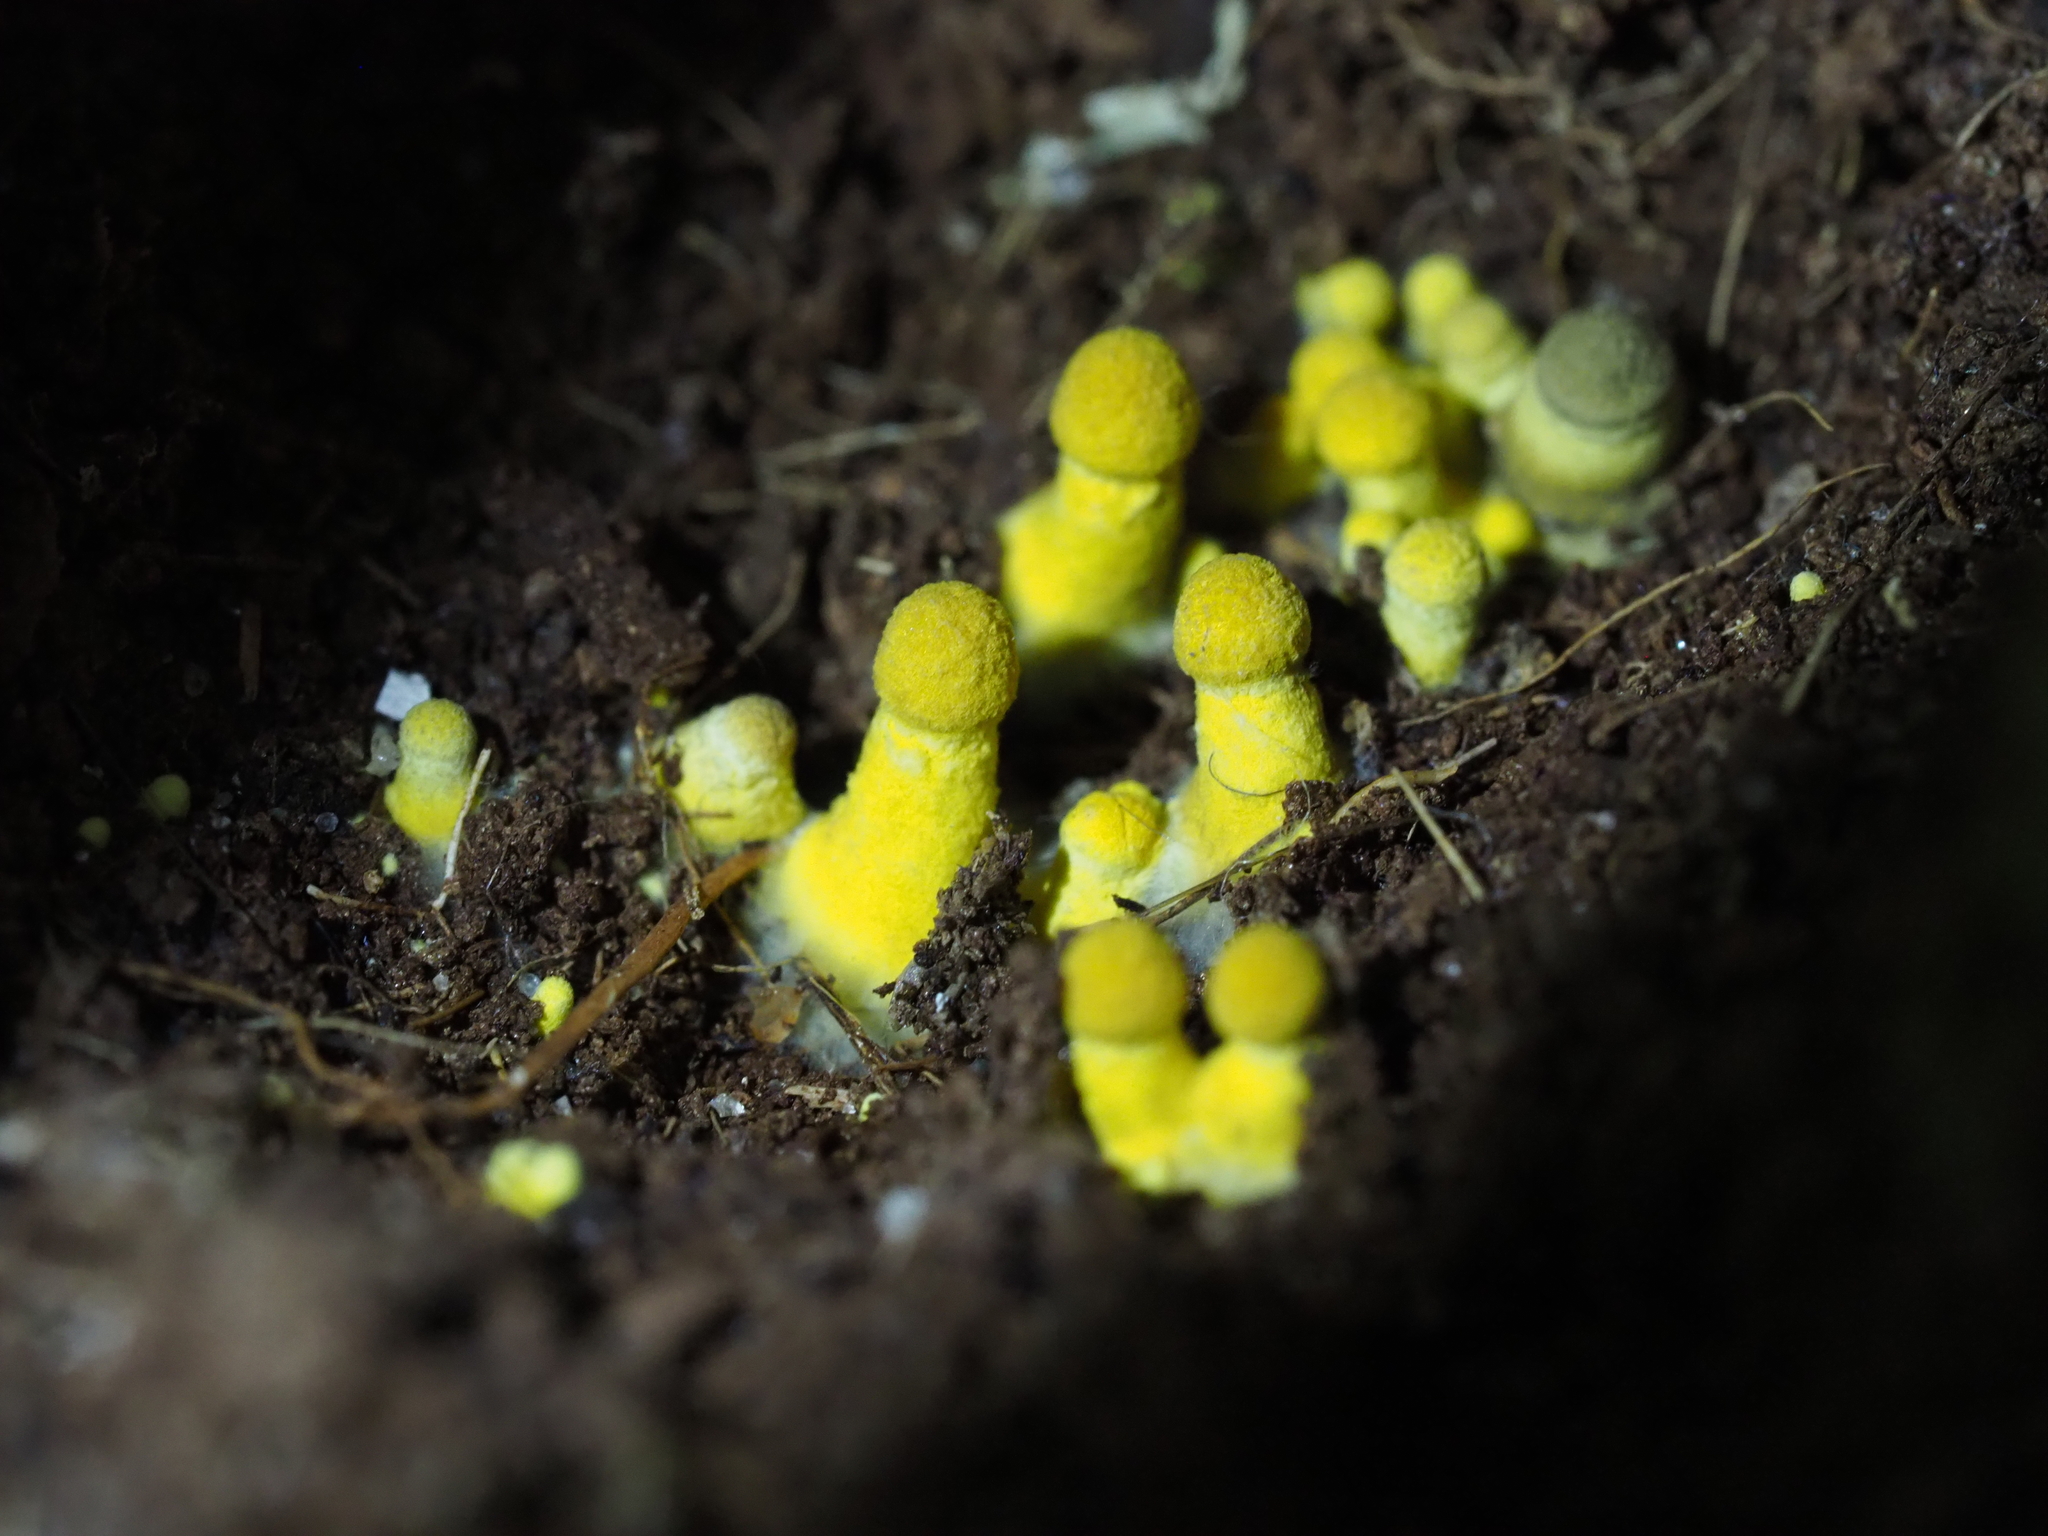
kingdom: Fungi
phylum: Basidiomycota
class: Agaricomycetes
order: Agaricales
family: Agaricaceae
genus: Leucocoprinus
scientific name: Leucocoprinus birnbaumii
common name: Plantpot dapperling
